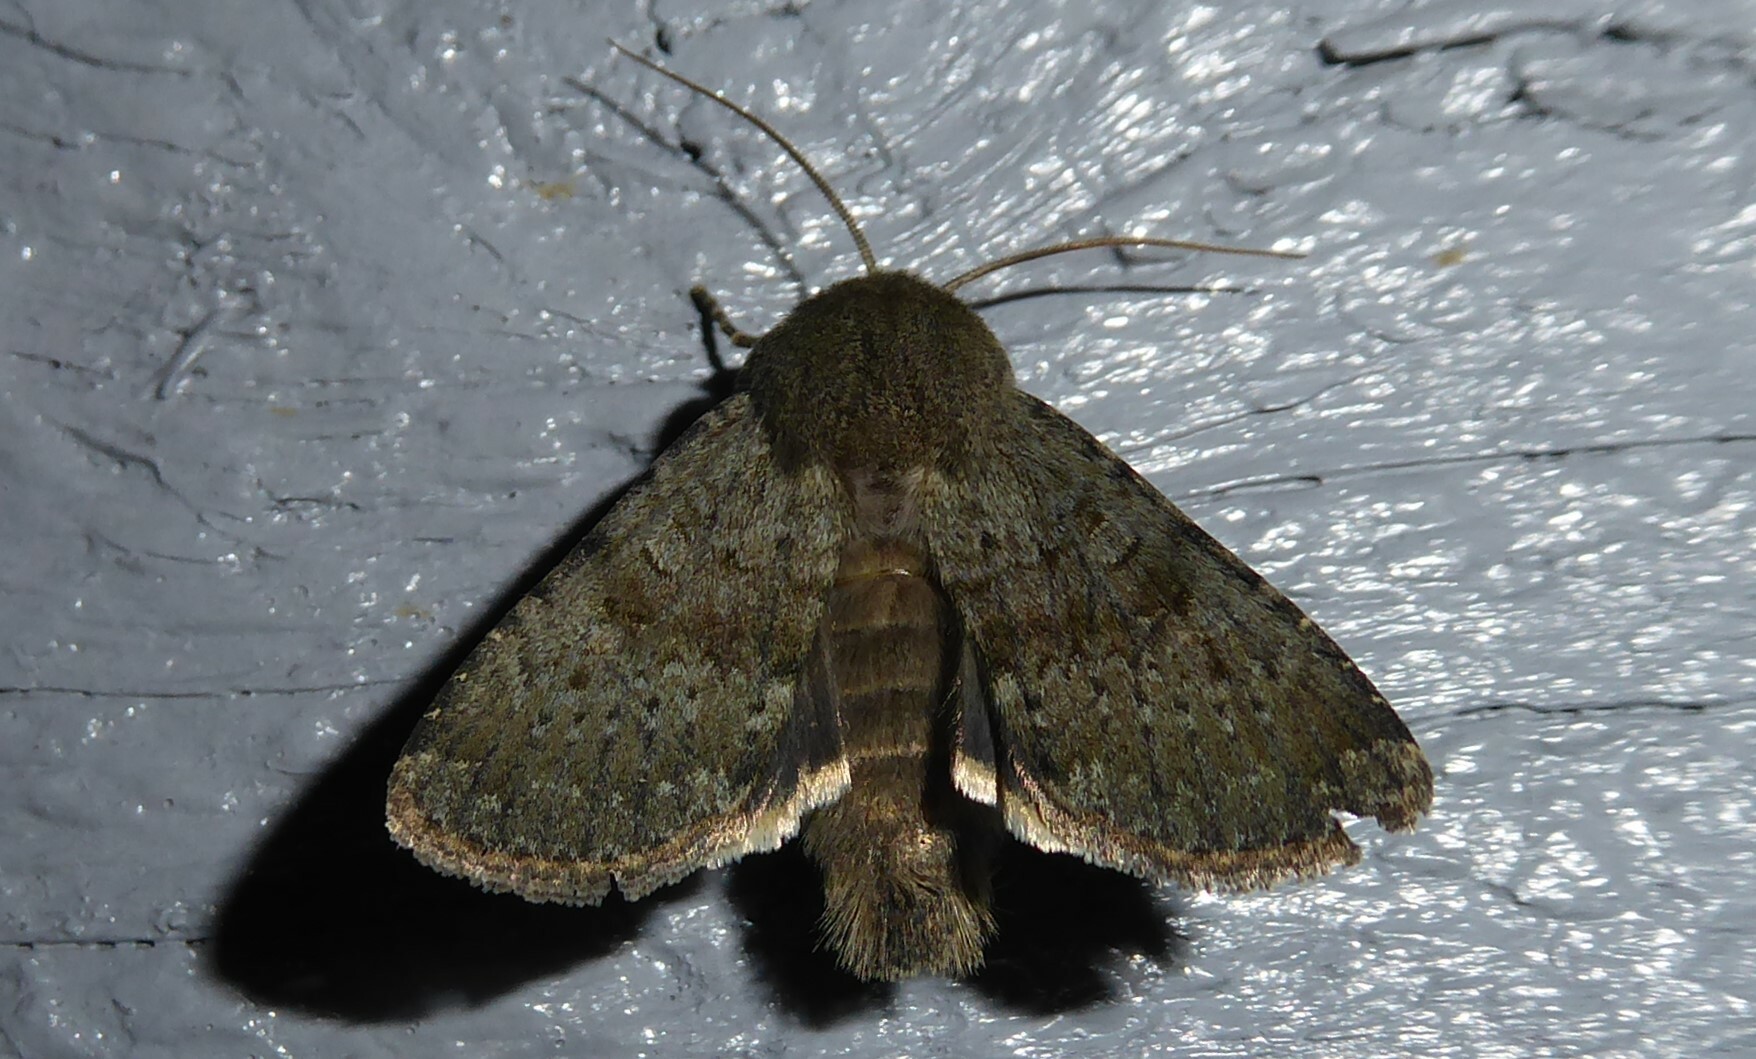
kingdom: Animalia
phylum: Arthropoda
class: Insecta
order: Lepidoptera
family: Noctuidae
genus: Ichneutica
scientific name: Ichneutica moderata
